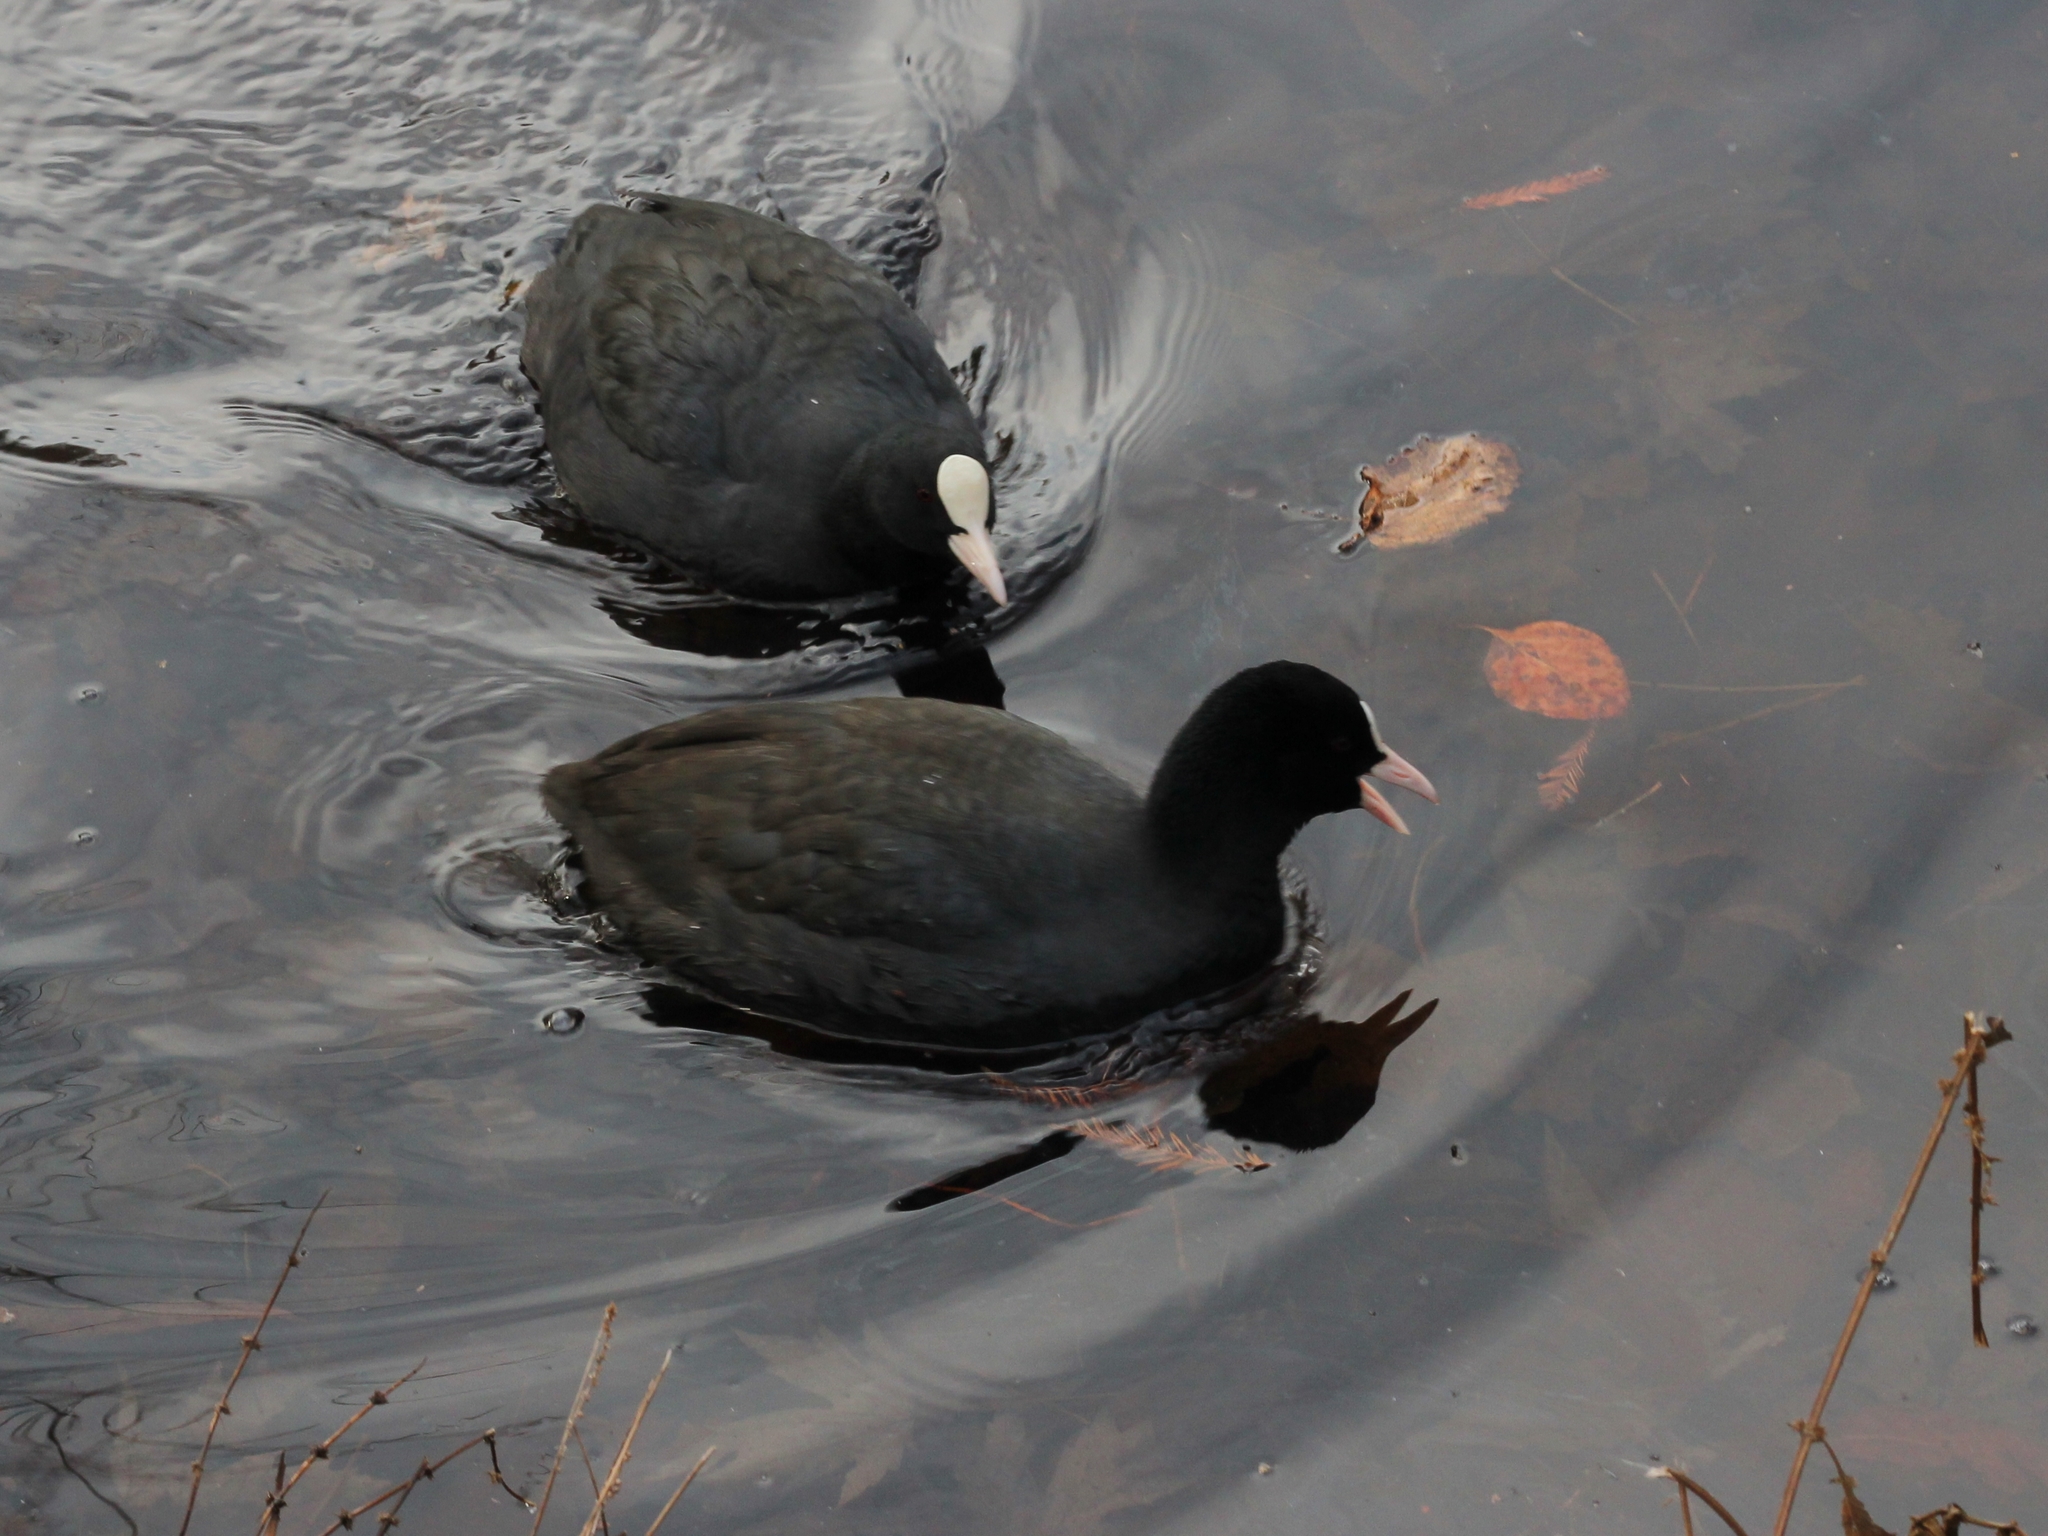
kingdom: Animalia
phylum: Chordata
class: Aves
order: Gruiformes
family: Rallidae
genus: Fulica
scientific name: Fulica atra
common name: Eurasian coot
